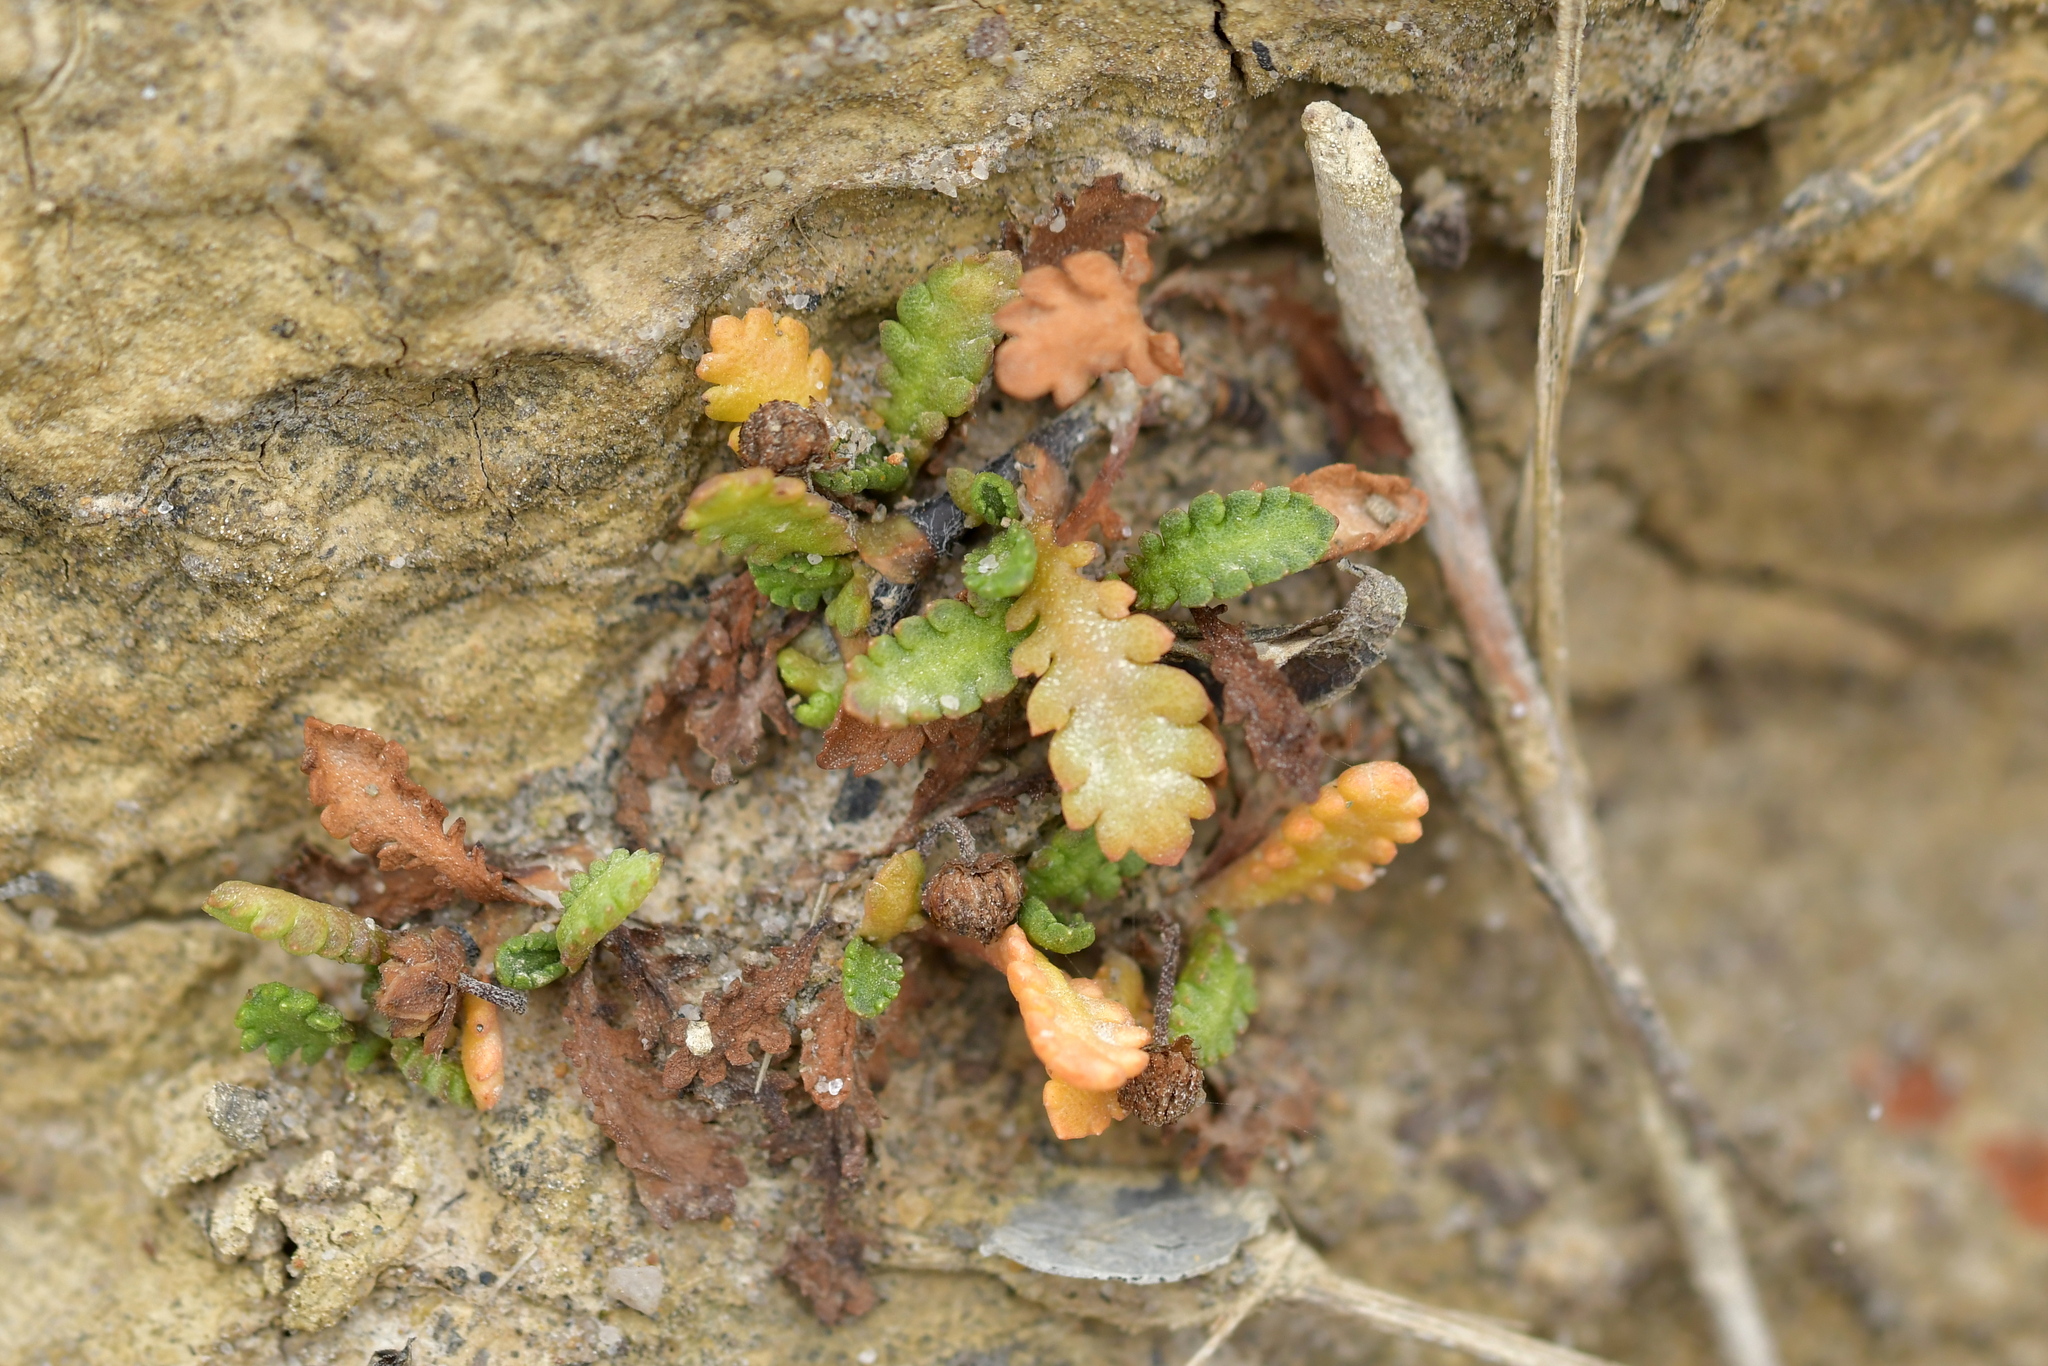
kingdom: Plantae
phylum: Tracheophyta
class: Magnoliopsida
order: Asterales
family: Asteraceae
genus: Leptinella
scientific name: Leptinella dioica
